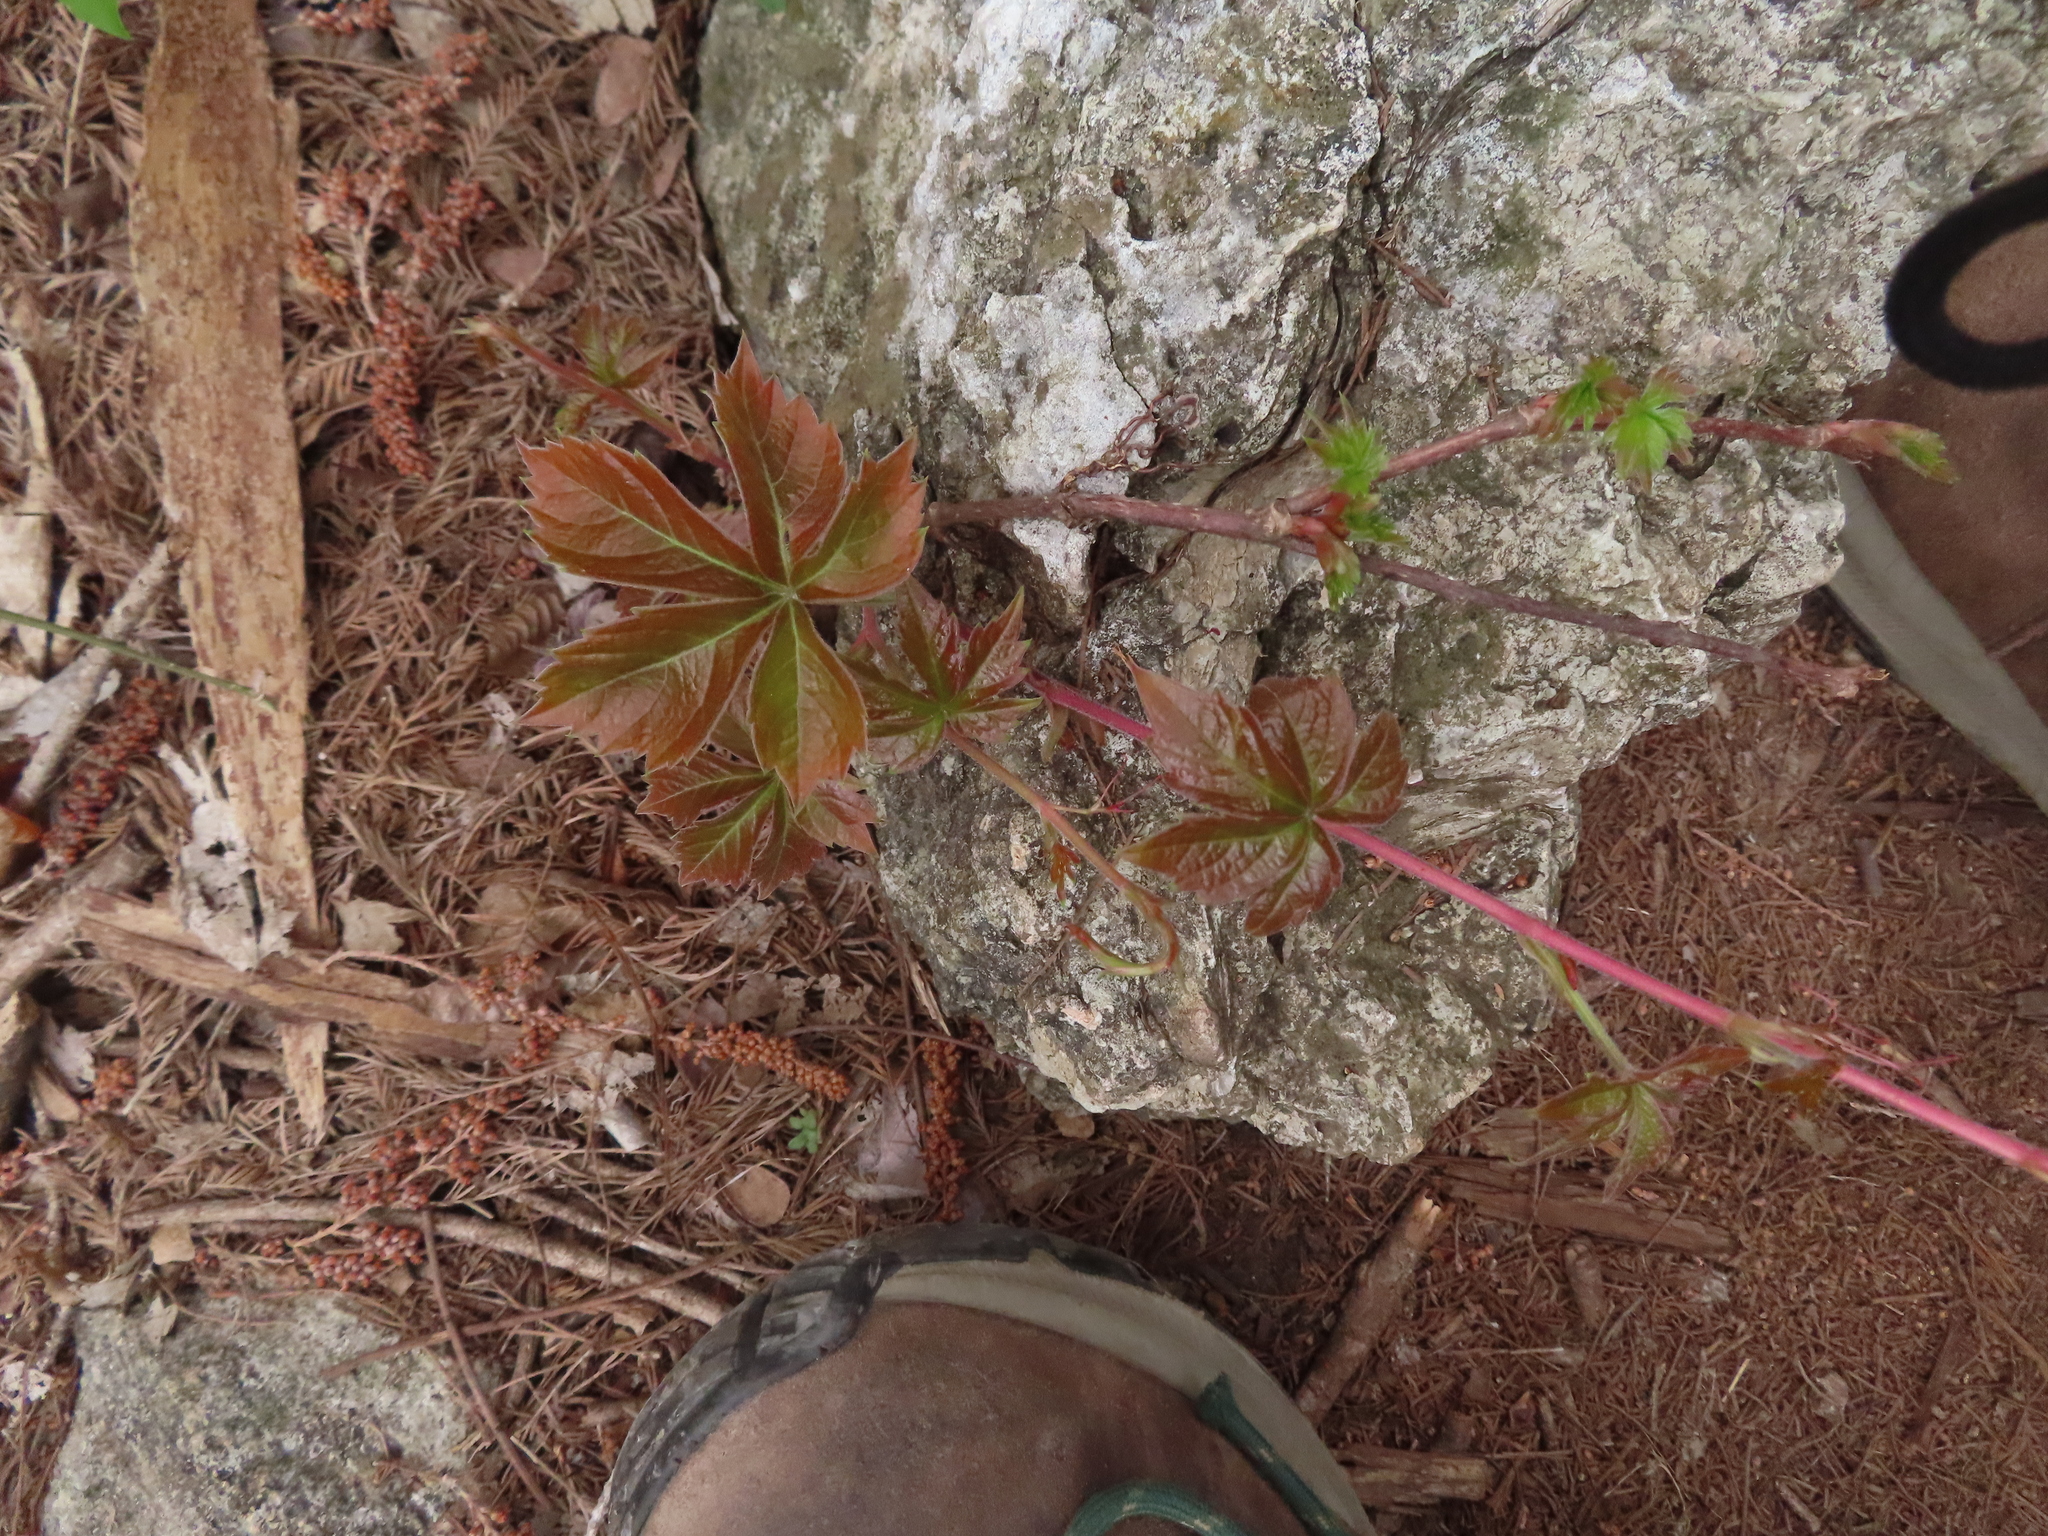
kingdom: Plantae
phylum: Tracheophyta
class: Magnoliopsida
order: Vitales
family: Vitaceae
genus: Parthenocissus
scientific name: Parthenocissus quinquefolia
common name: Virginia-creeper
